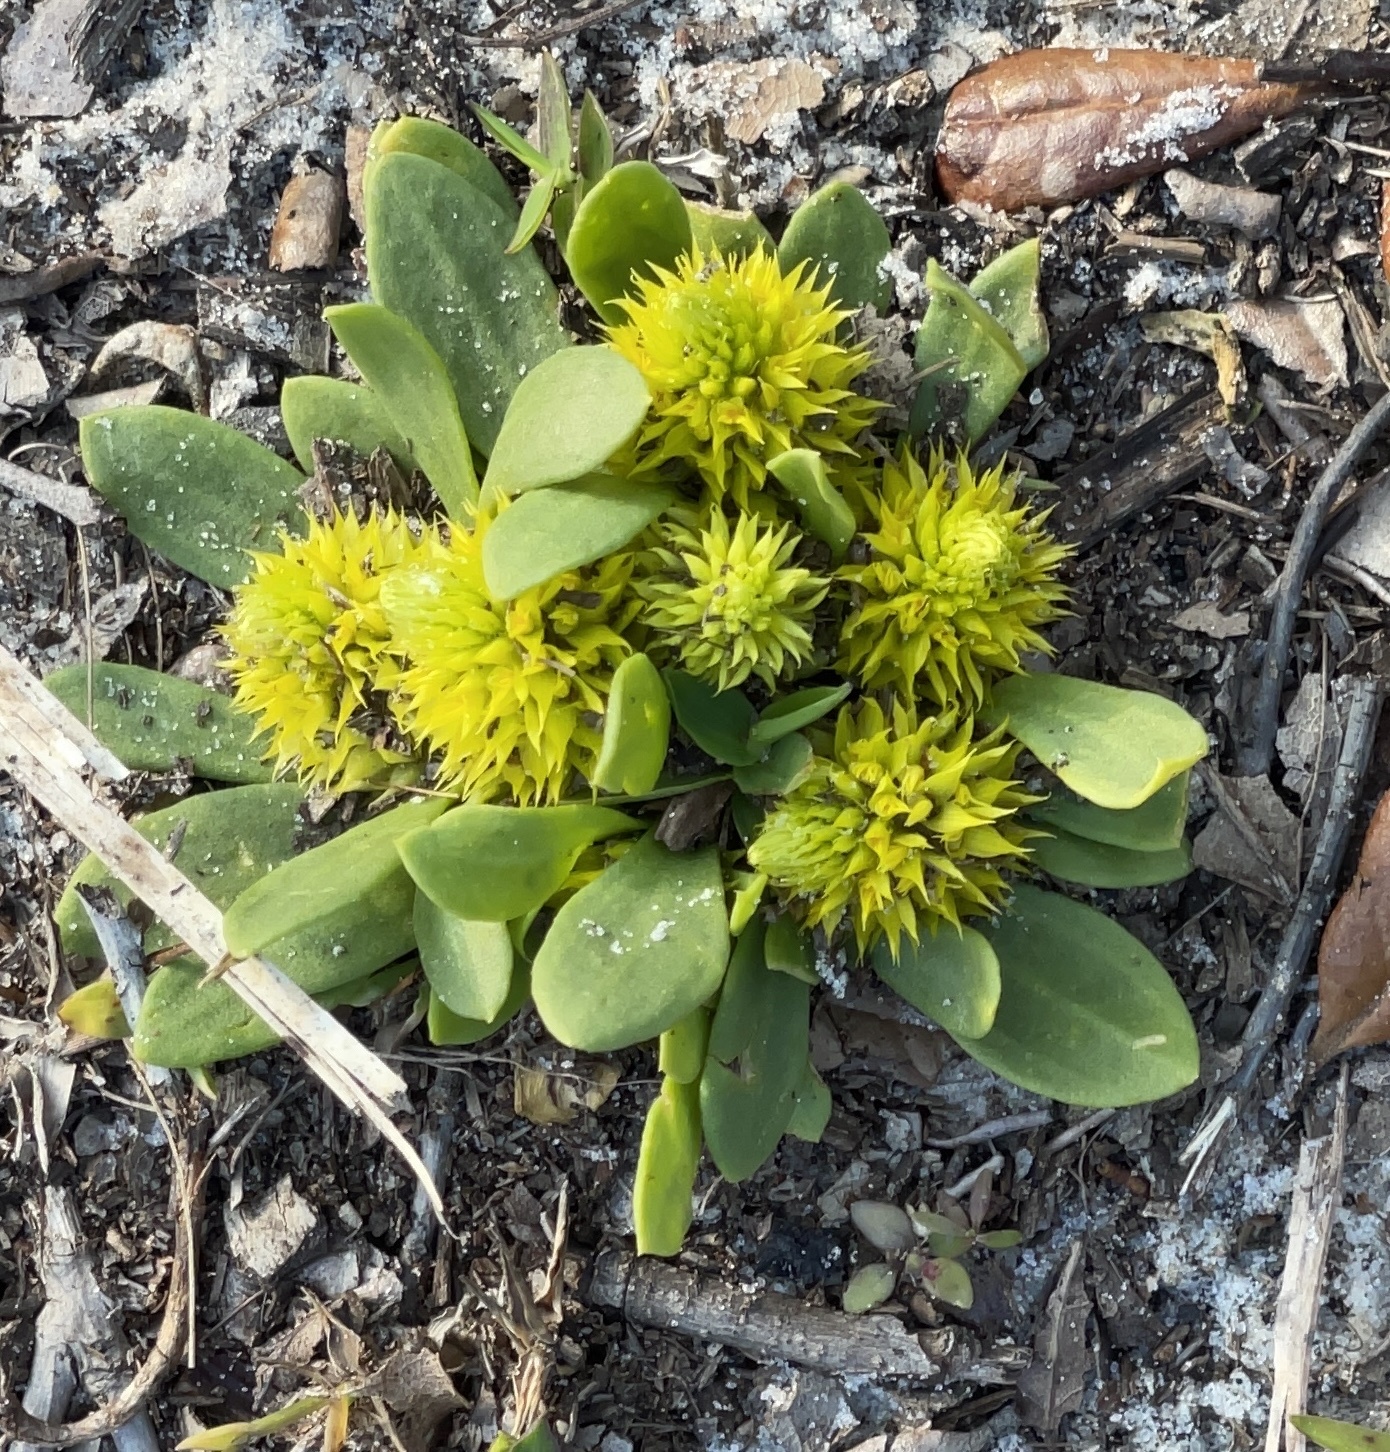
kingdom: Plantae
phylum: Tracheophyta
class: Magnoliopsida
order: Fabales
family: Polygalaceae
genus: Polygala
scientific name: Polygala nana
